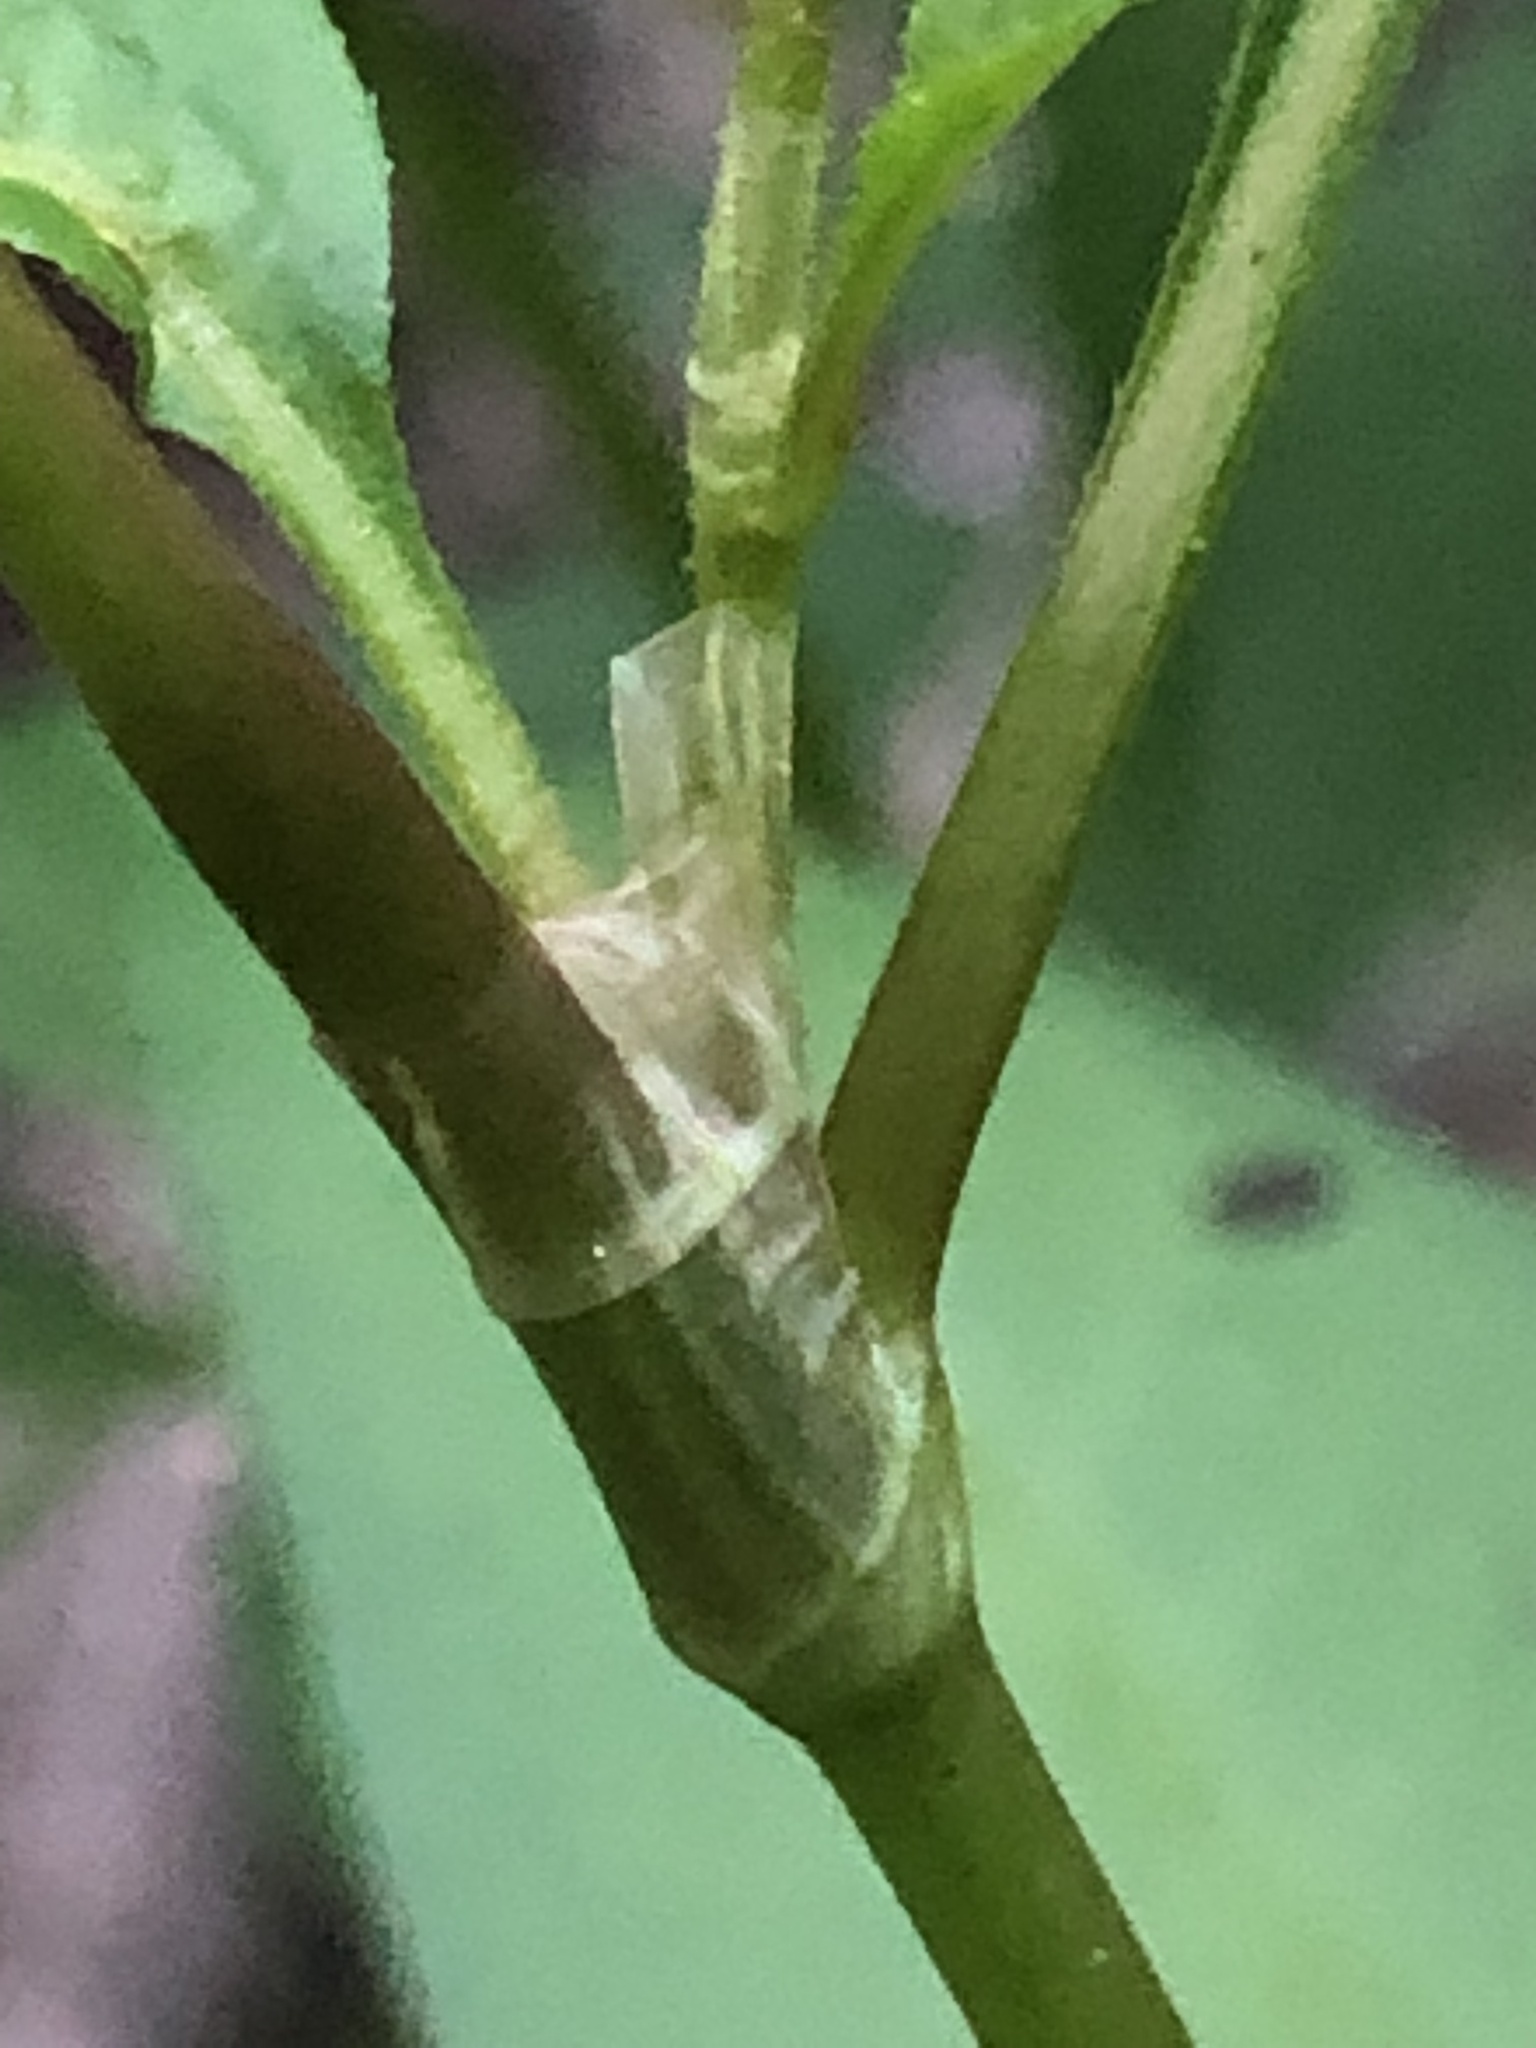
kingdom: Plantae
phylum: Tracheophyta
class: Magnoliopsida
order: Caryophyllales
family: Polygonaceae
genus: Persicaria
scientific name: Persicaria pensylvanica
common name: Pinkweed
